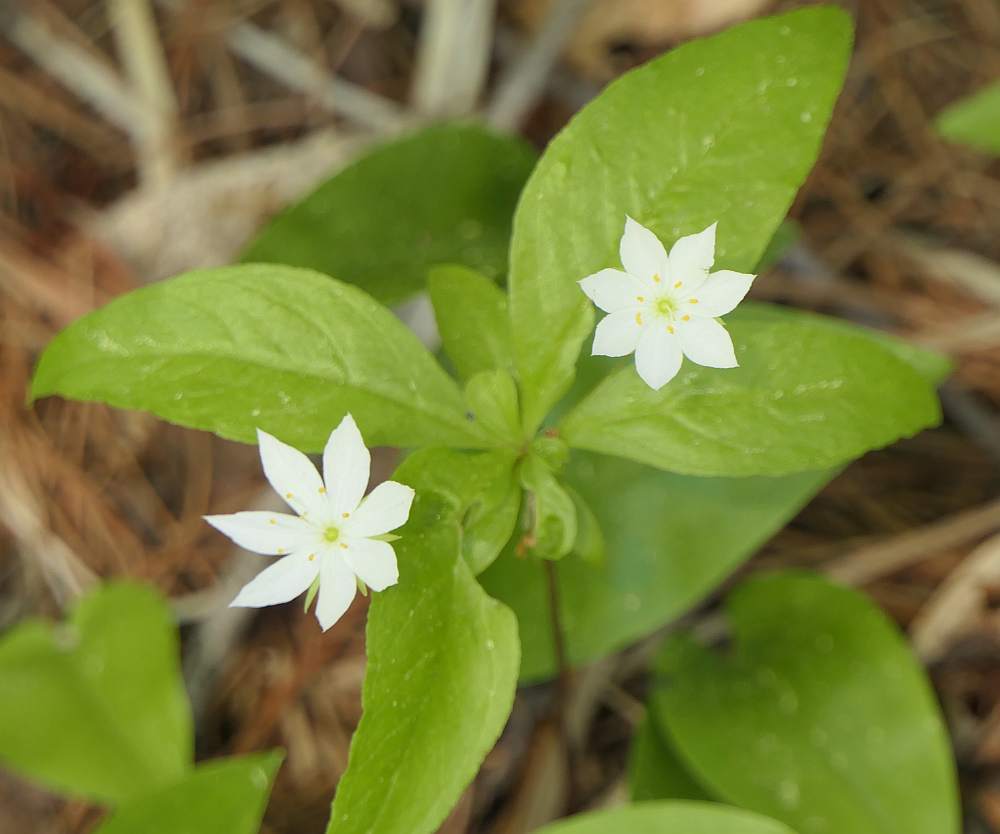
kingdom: Plantae
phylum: Tracheophyta
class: Magnoliopsida
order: Ericales
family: Primulaceae
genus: Lysimachia
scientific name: Lysimachia borealis
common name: American starflower
